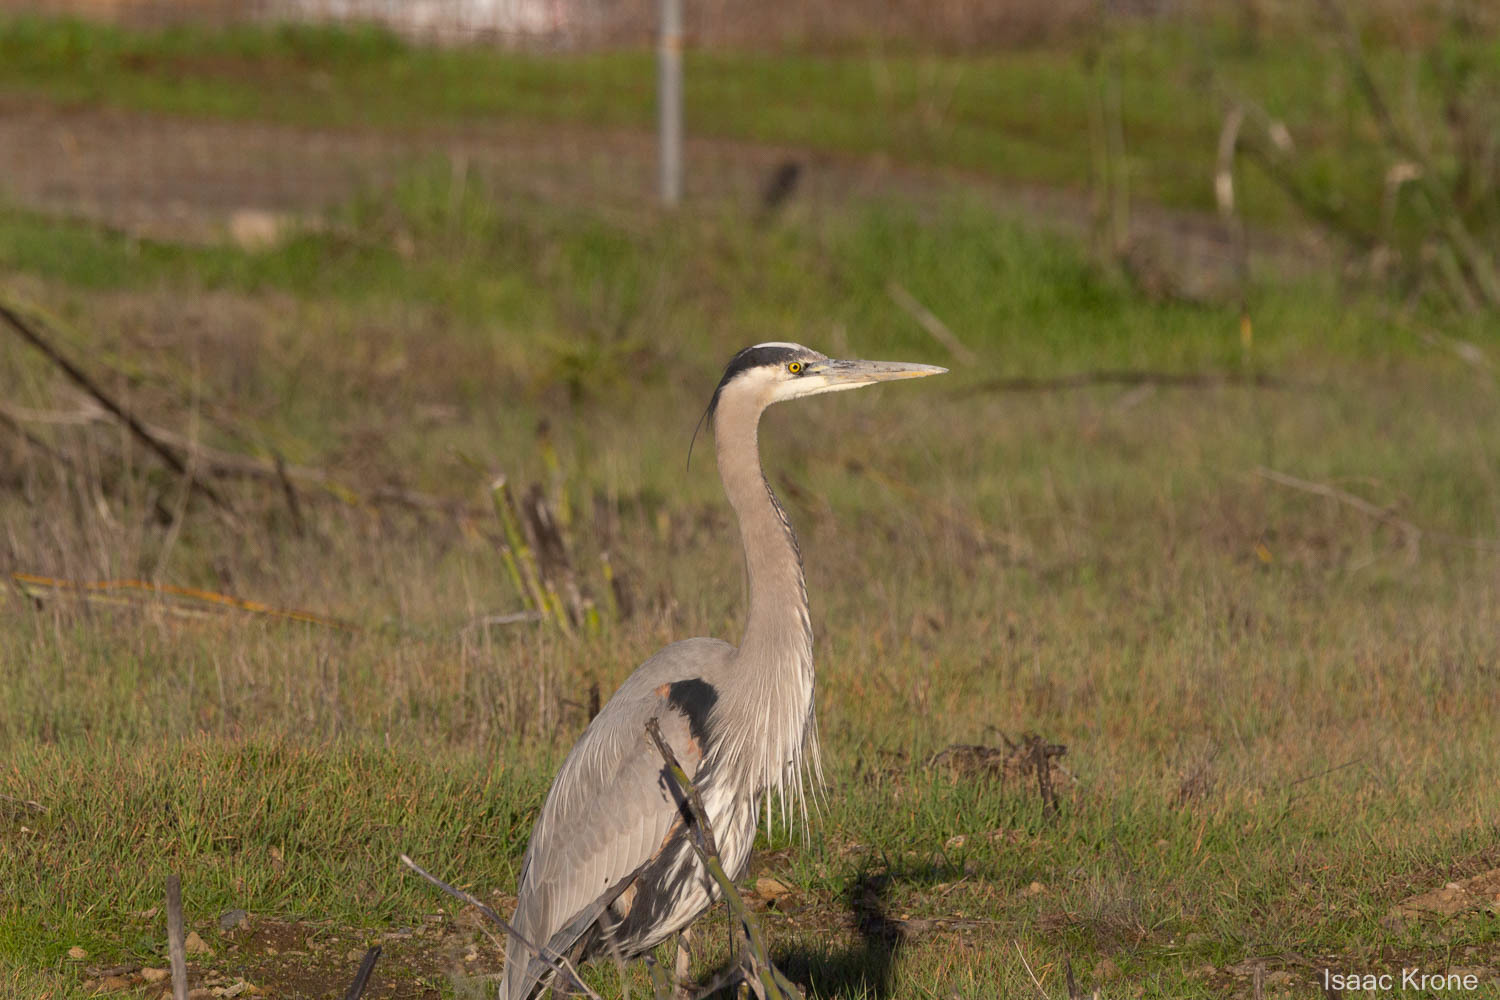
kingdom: Animalia
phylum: Chordata
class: Aves
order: Pelecaniformes
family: Ardeidae
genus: Ardea
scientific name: Ardea herodias
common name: Great blue heron
